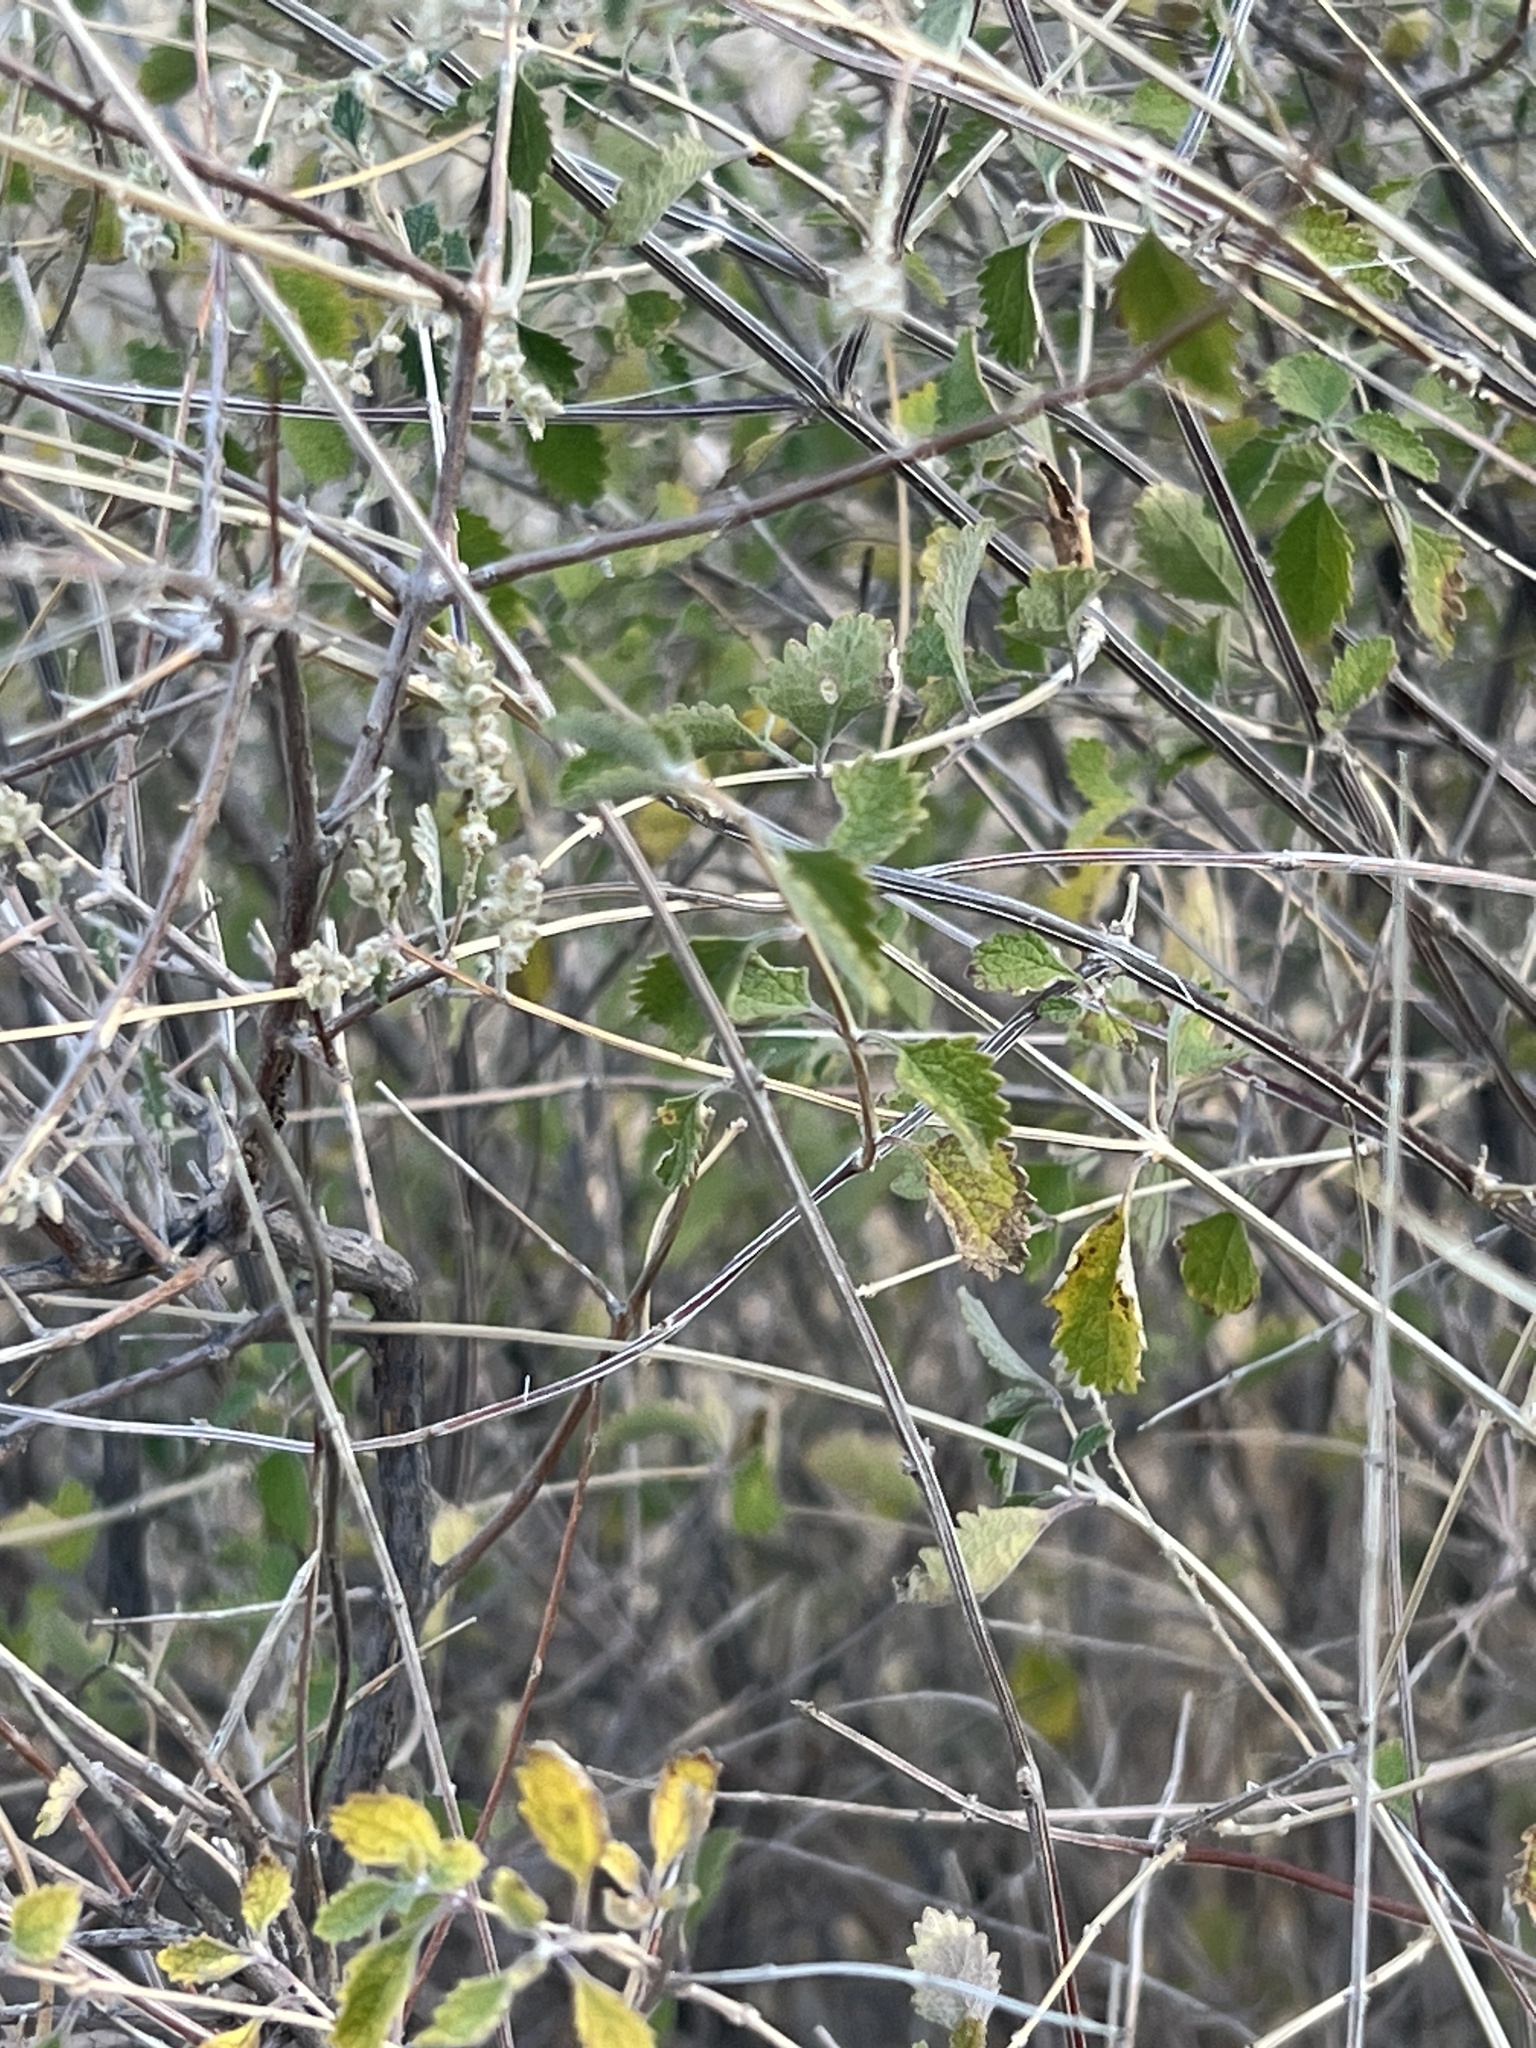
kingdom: Plantae
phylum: Tracheophyta
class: Magnoliopsida
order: Lamiales
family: Verbenaceae
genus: Aloysia
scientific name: Aloysia wrightii
